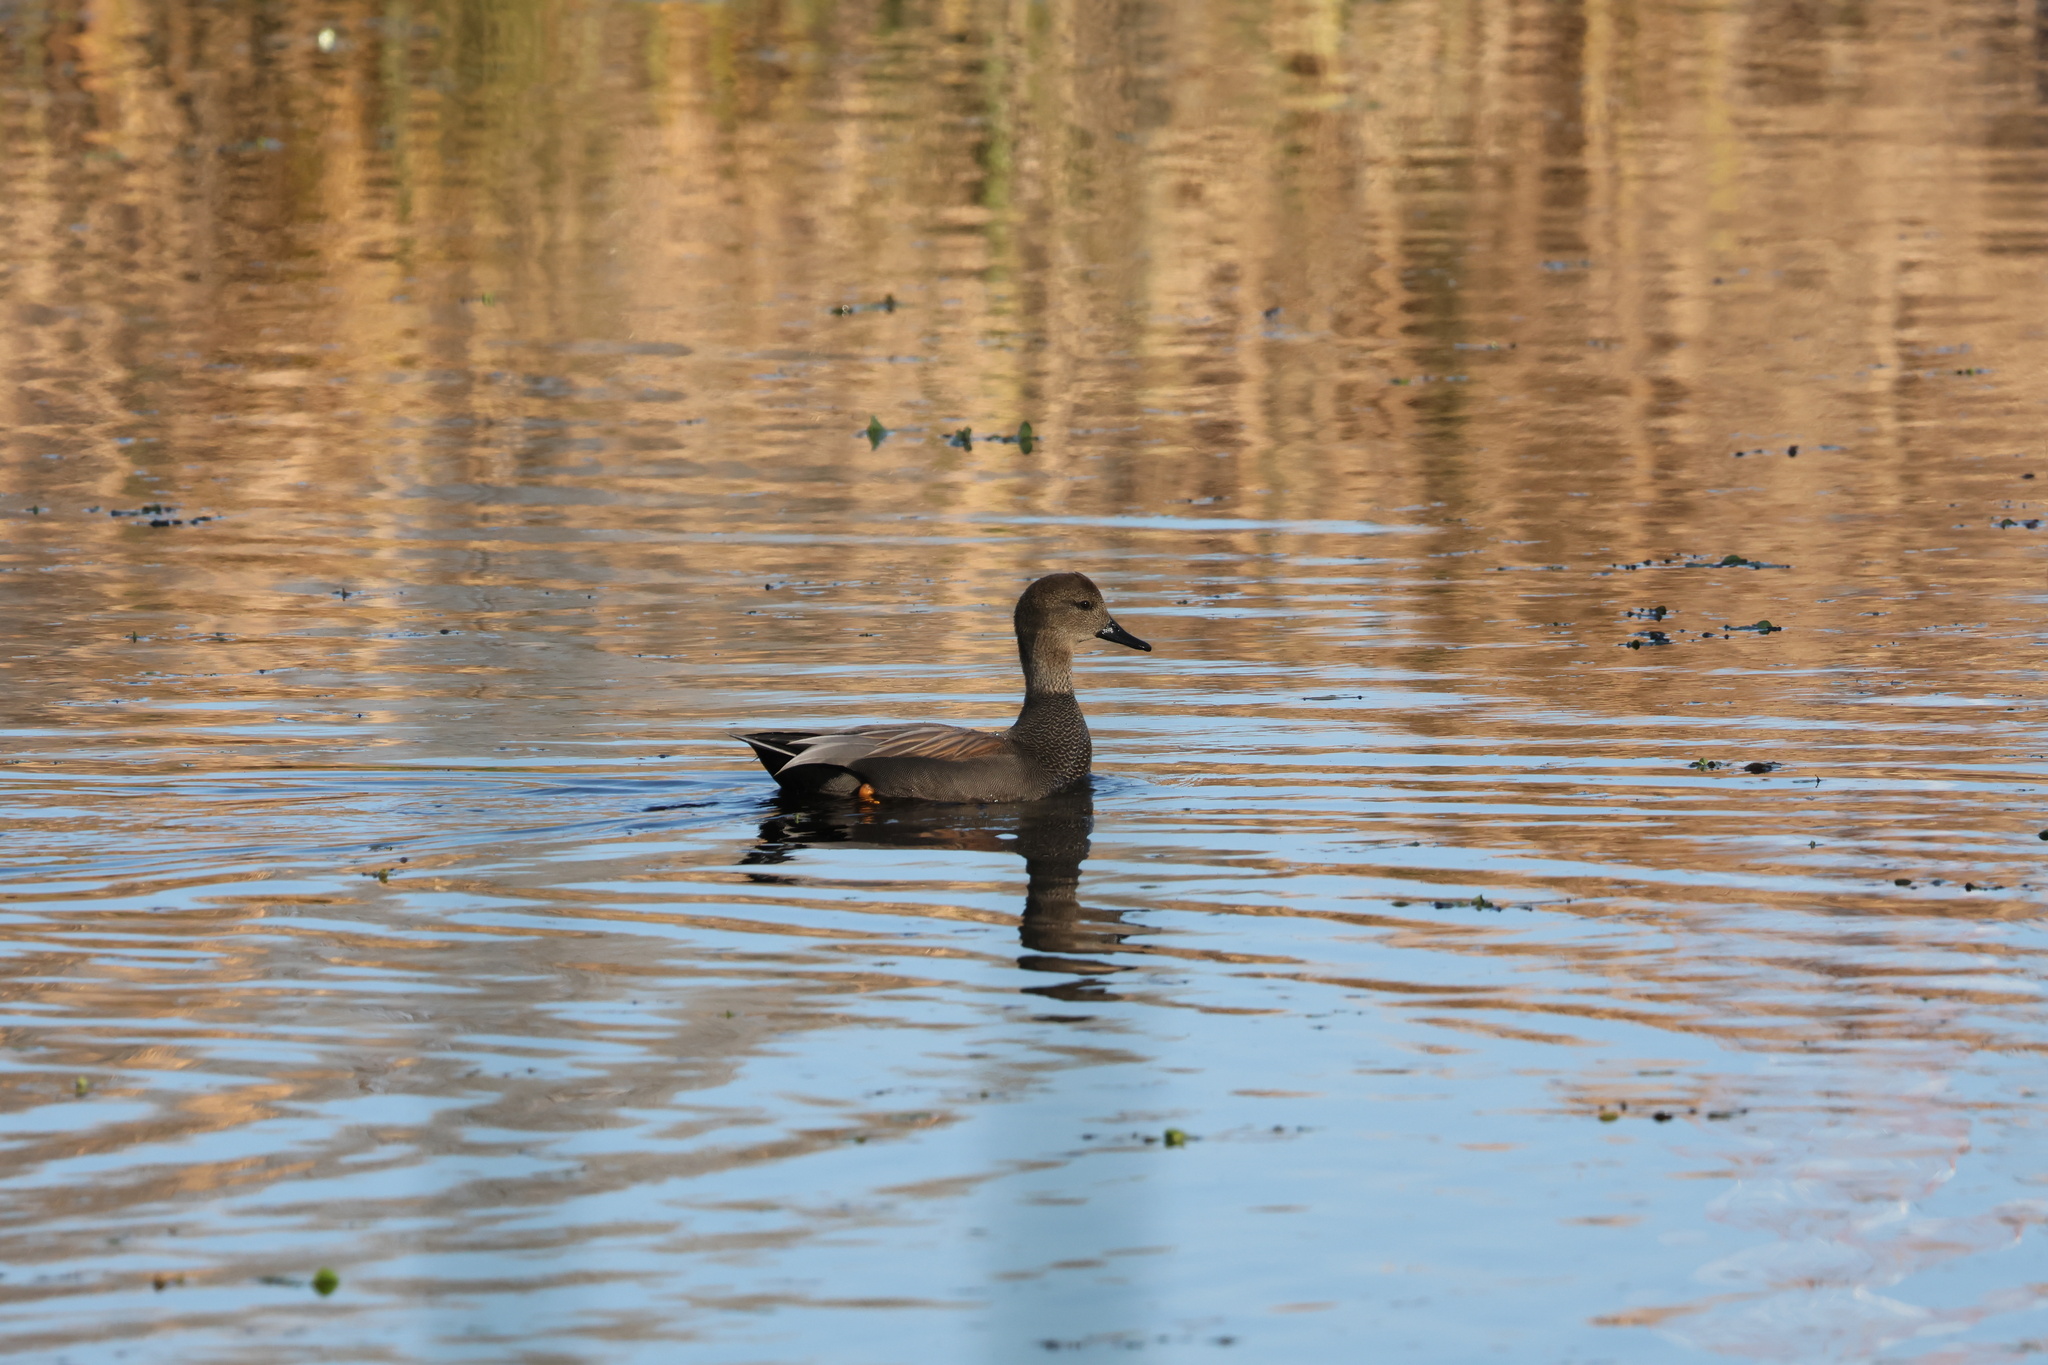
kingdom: Animalia
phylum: Chordata
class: Aves
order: Anseriformes
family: Anatidae
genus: Mareca
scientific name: Mareca strepera
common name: Gadwall
